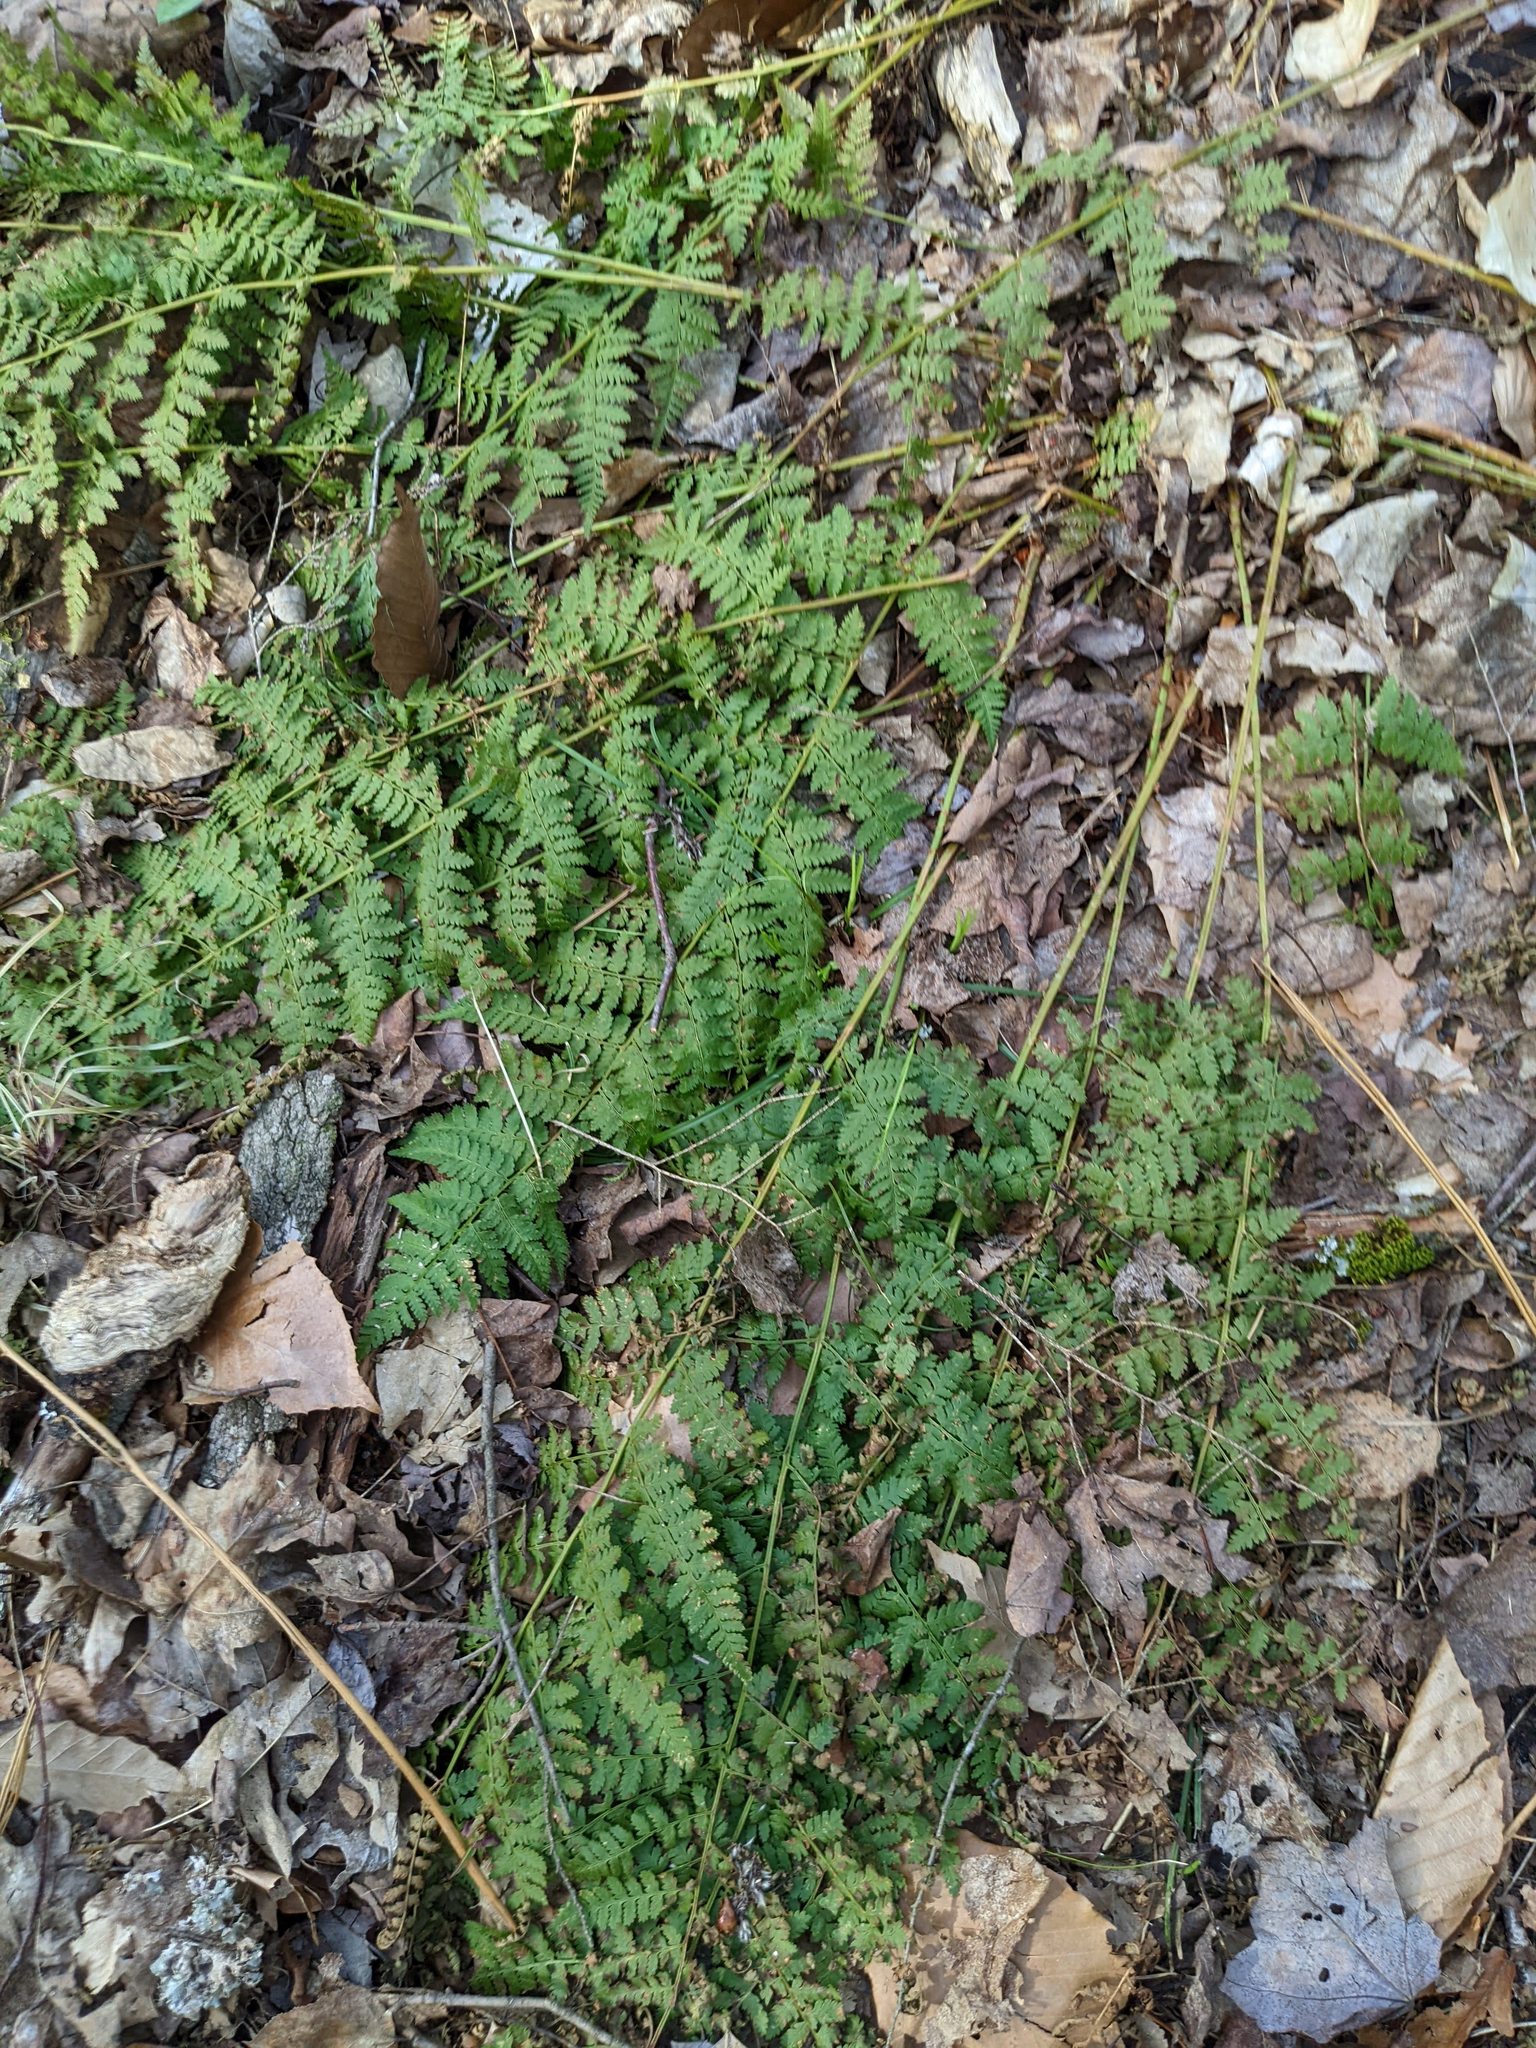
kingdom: Plantae
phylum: Tracheophyta
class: Polypodiopsida
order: Polypodiales
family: Dryopteridaceae
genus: Dryopteris
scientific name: Dryopteris intermedia
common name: Evergreen wood fern
